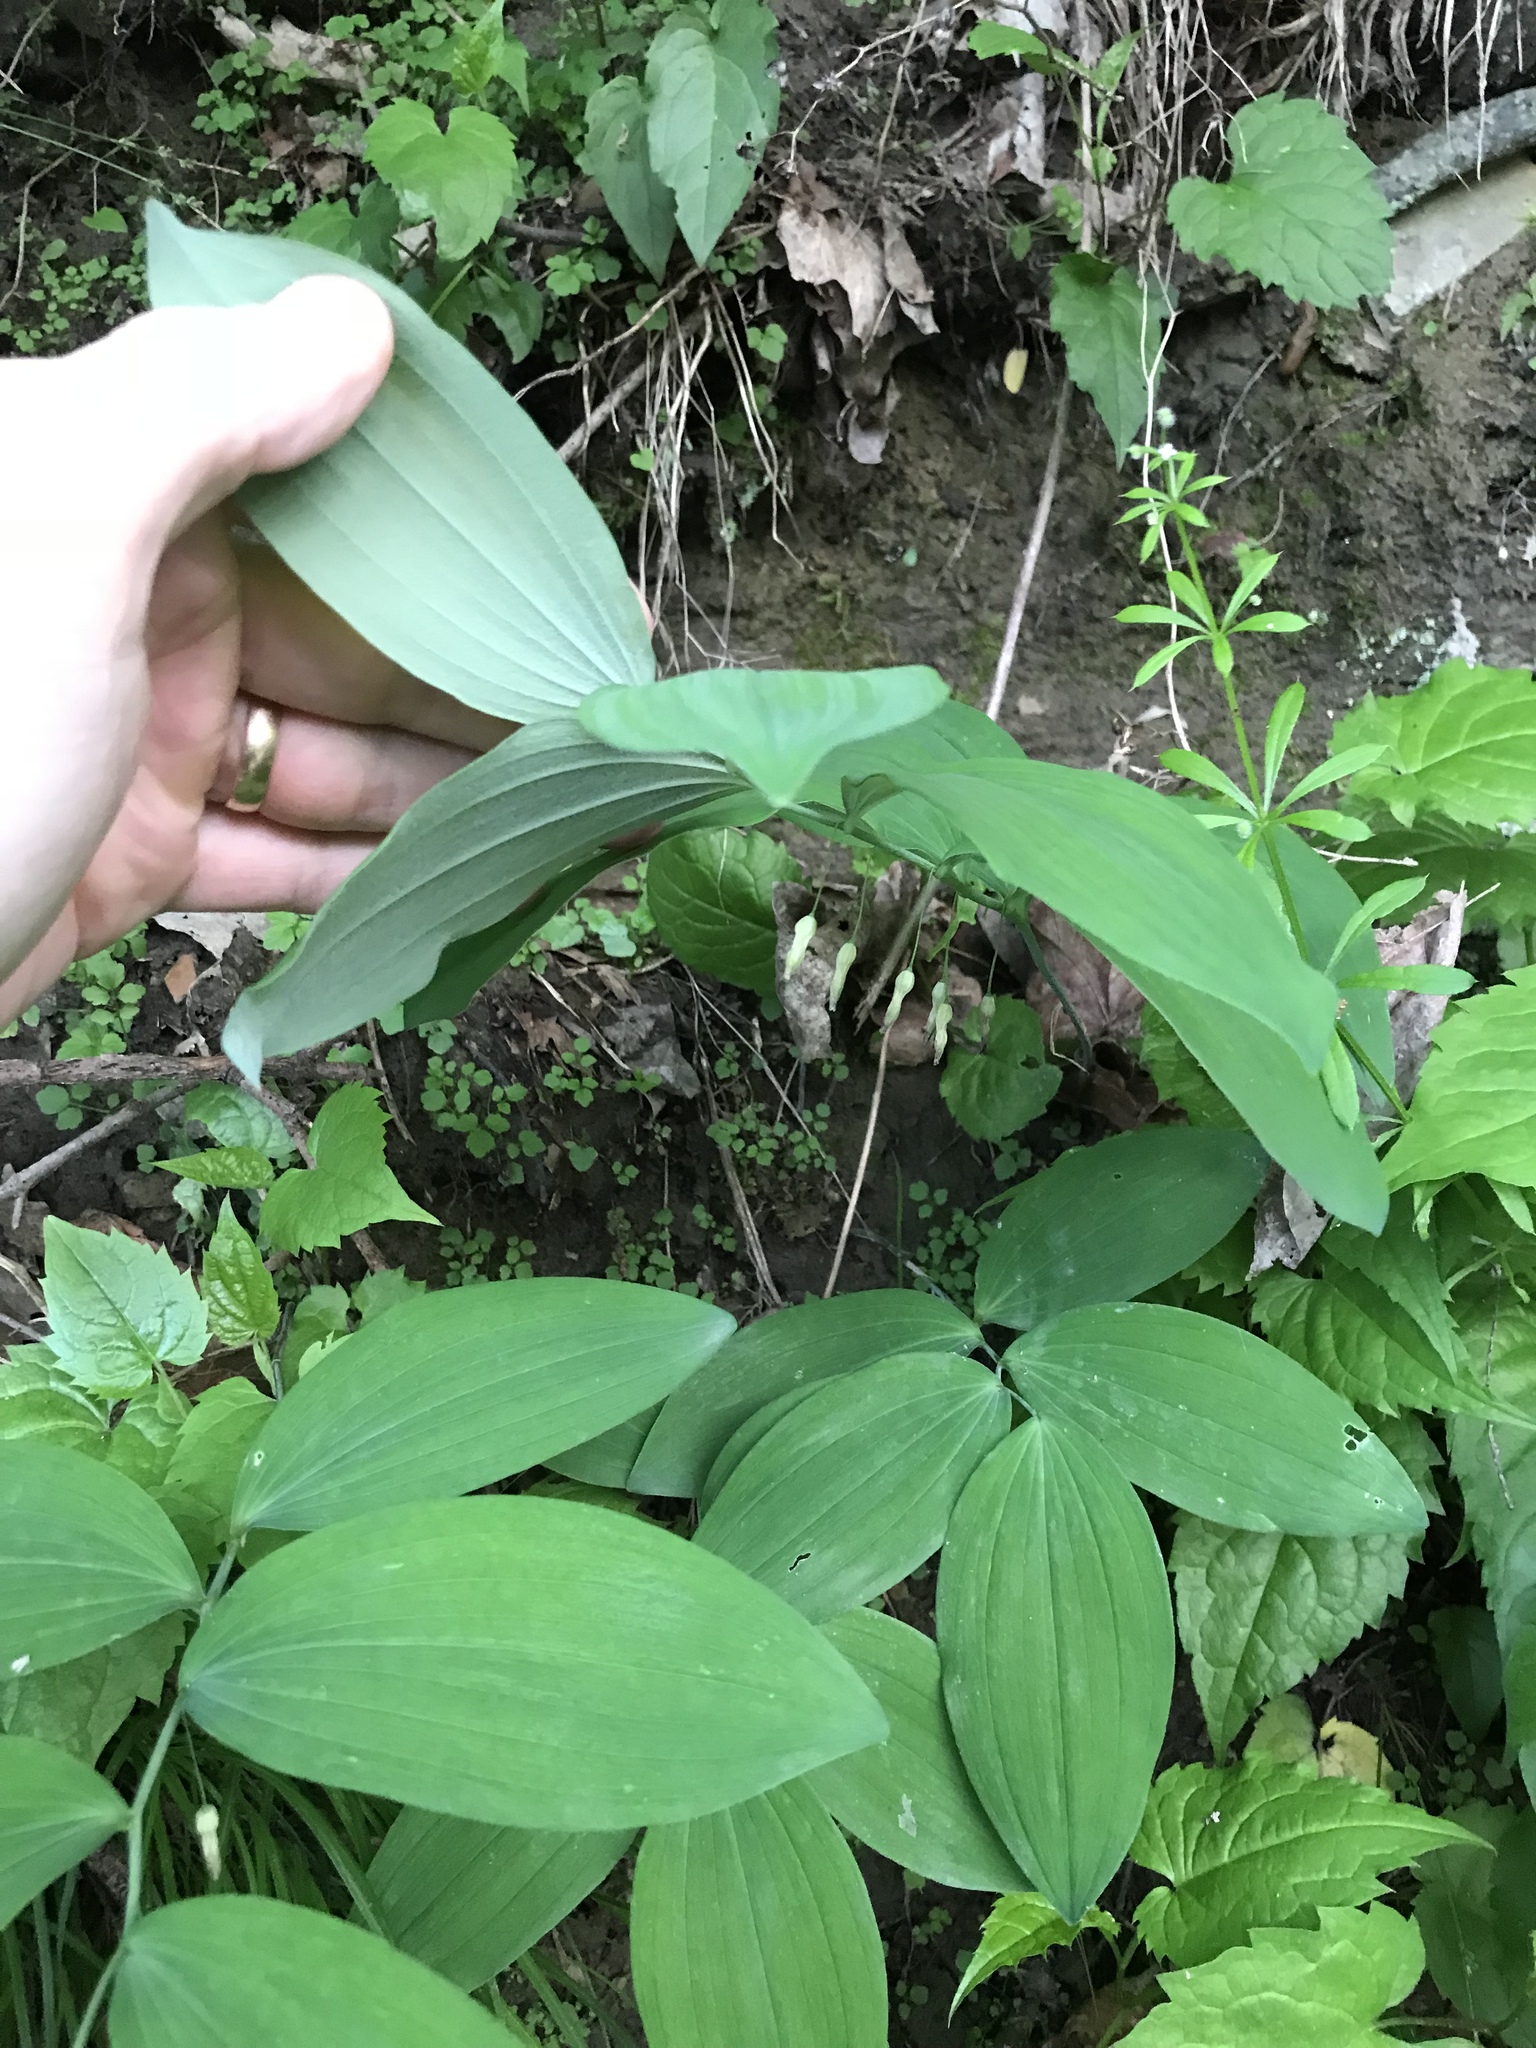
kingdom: Plantae
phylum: Tracheophyta
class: Liliopsida
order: Asparagales
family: Asparagaceae
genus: Polygonatum
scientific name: Polygonatum pubescens
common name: Downy solomon's seal
